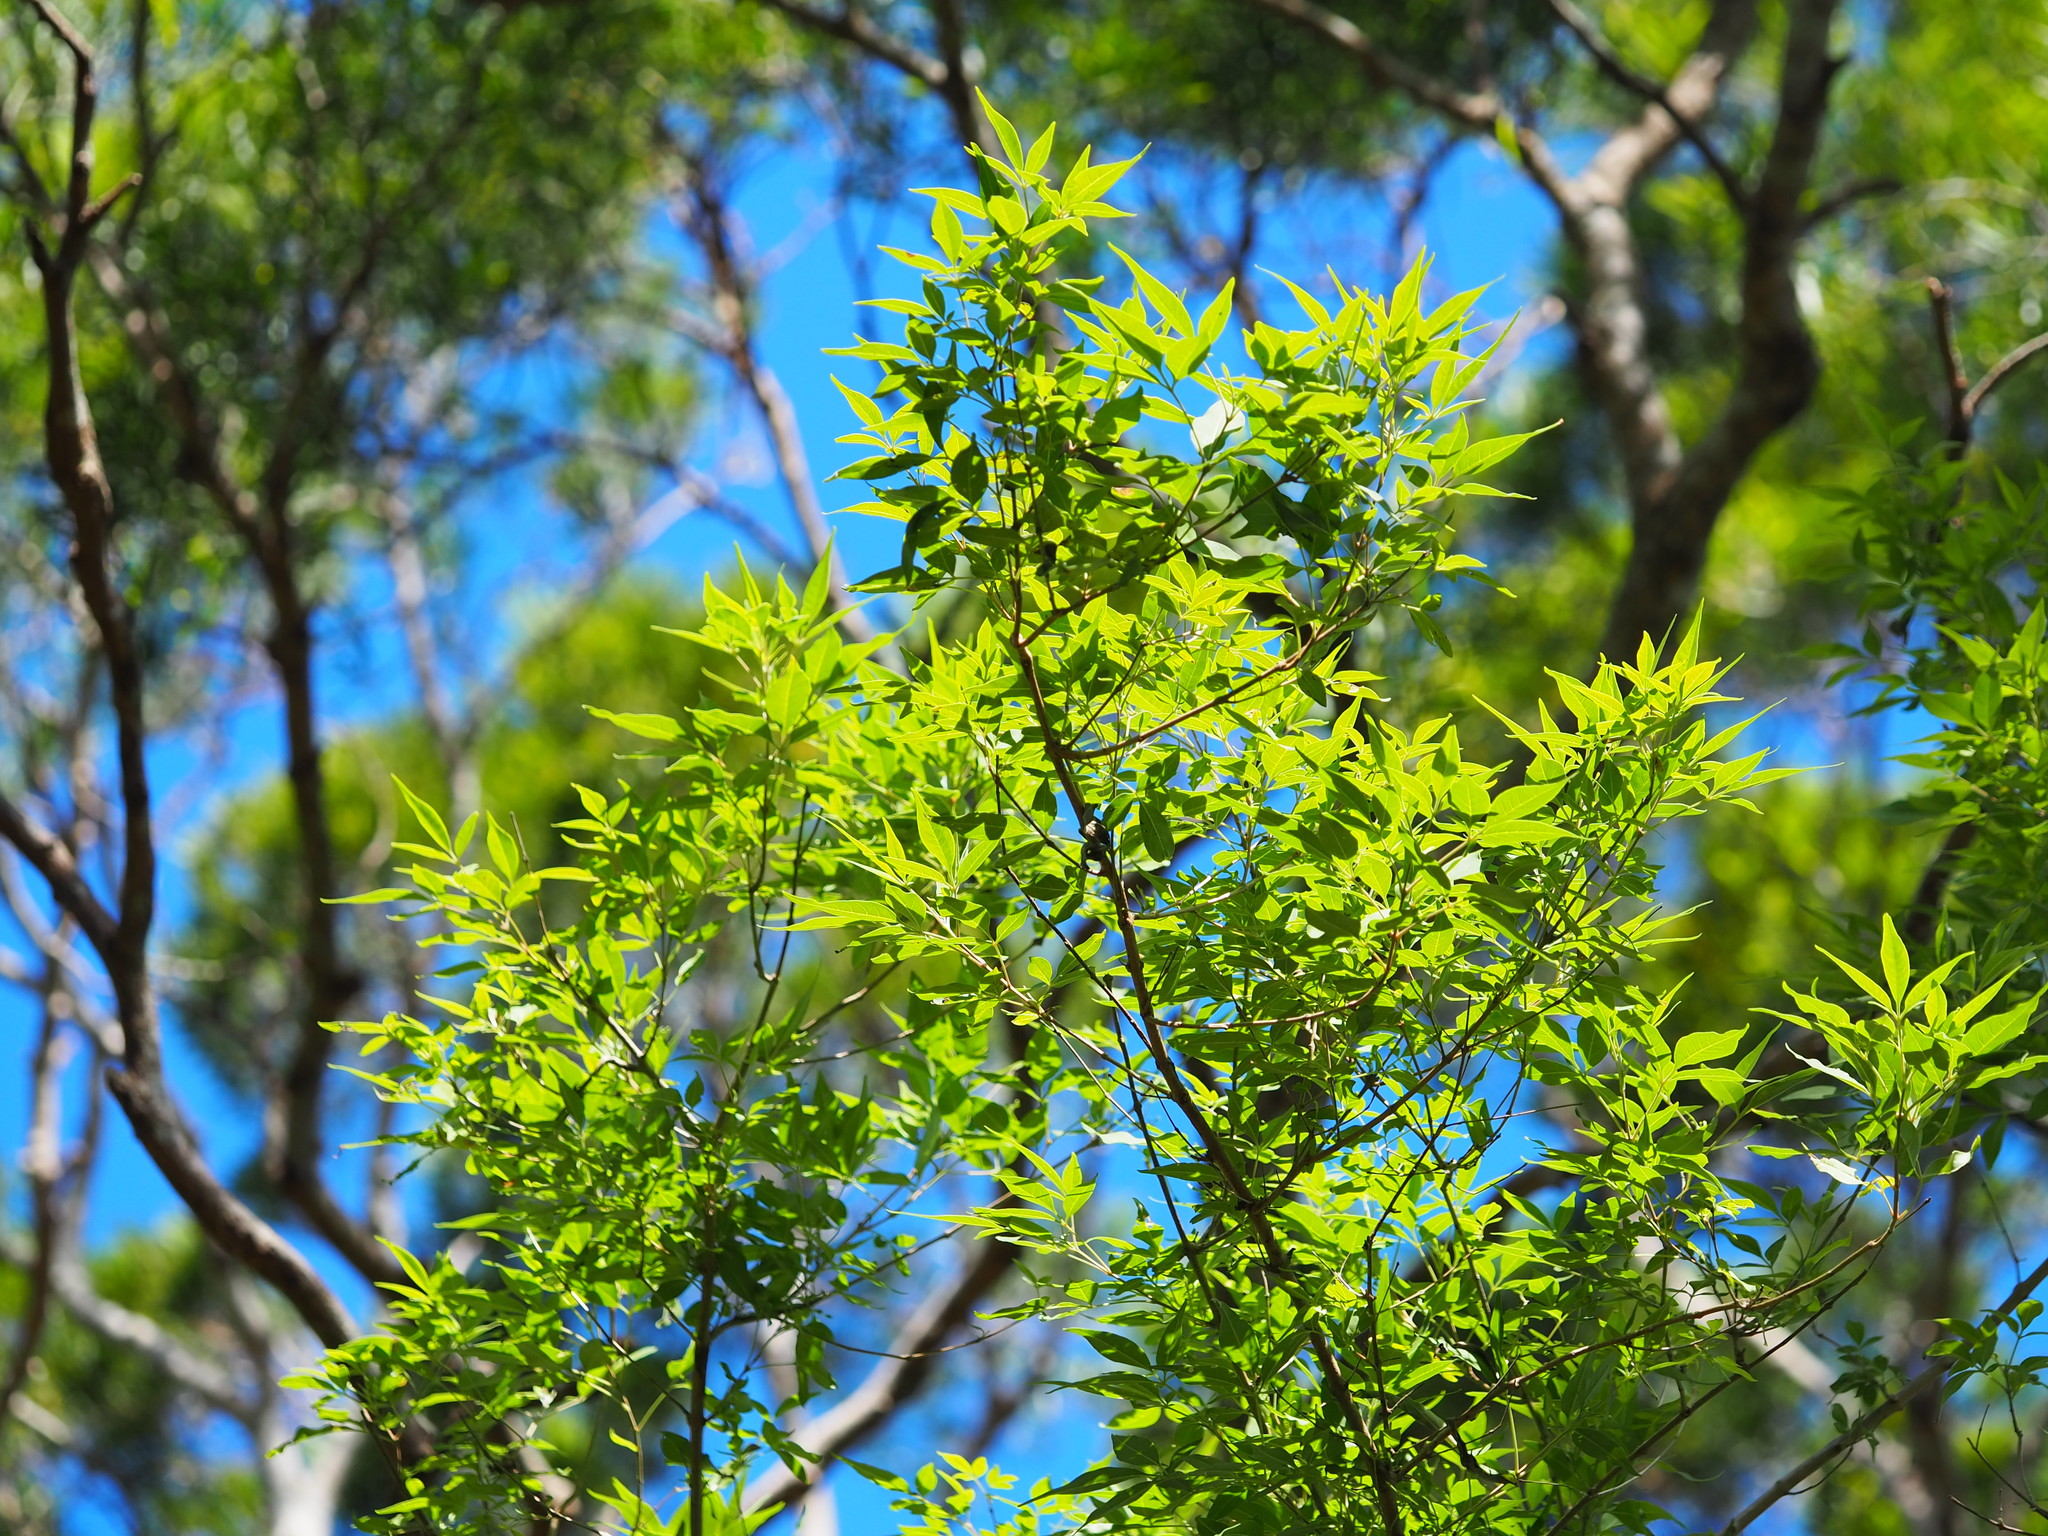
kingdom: Plantae
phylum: Tracheophyta
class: Magnoliopsida
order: Lamiales
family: Lamiaceae
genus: Vitex
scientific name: Vitex negundo
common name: Chinese chastetree
